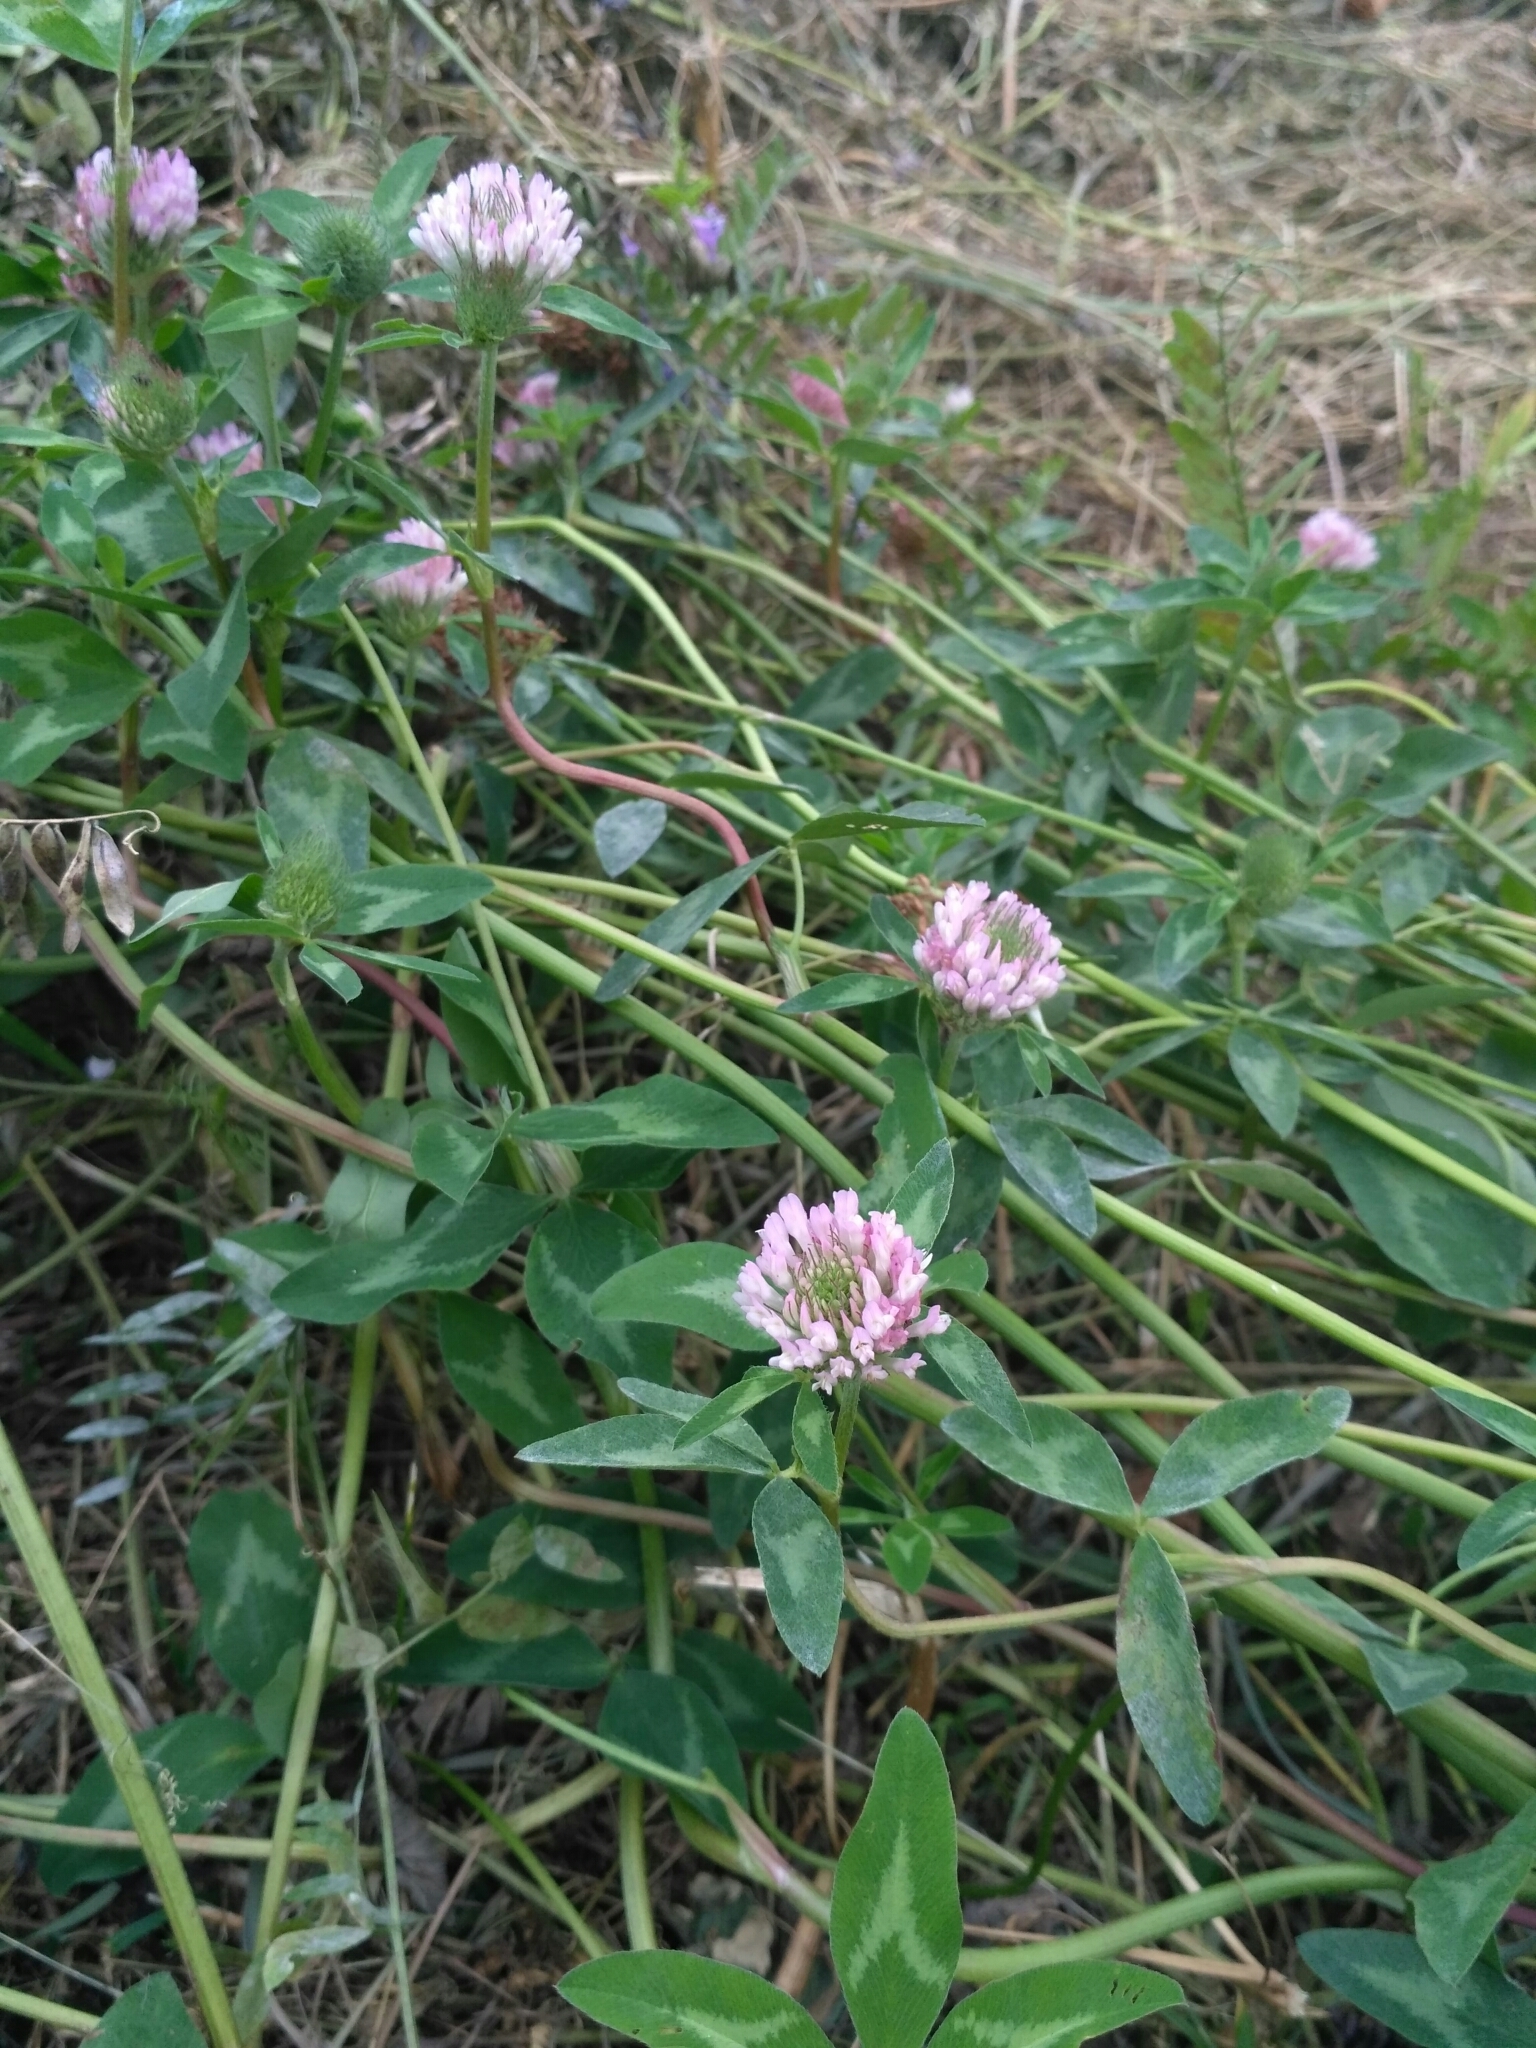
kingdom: Plantae
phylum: Tracheophyta
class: Magnoliopsida
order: Fabales
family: Fabaceae
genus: Trifolium
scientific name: Trifolium pratense
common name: Red clover
